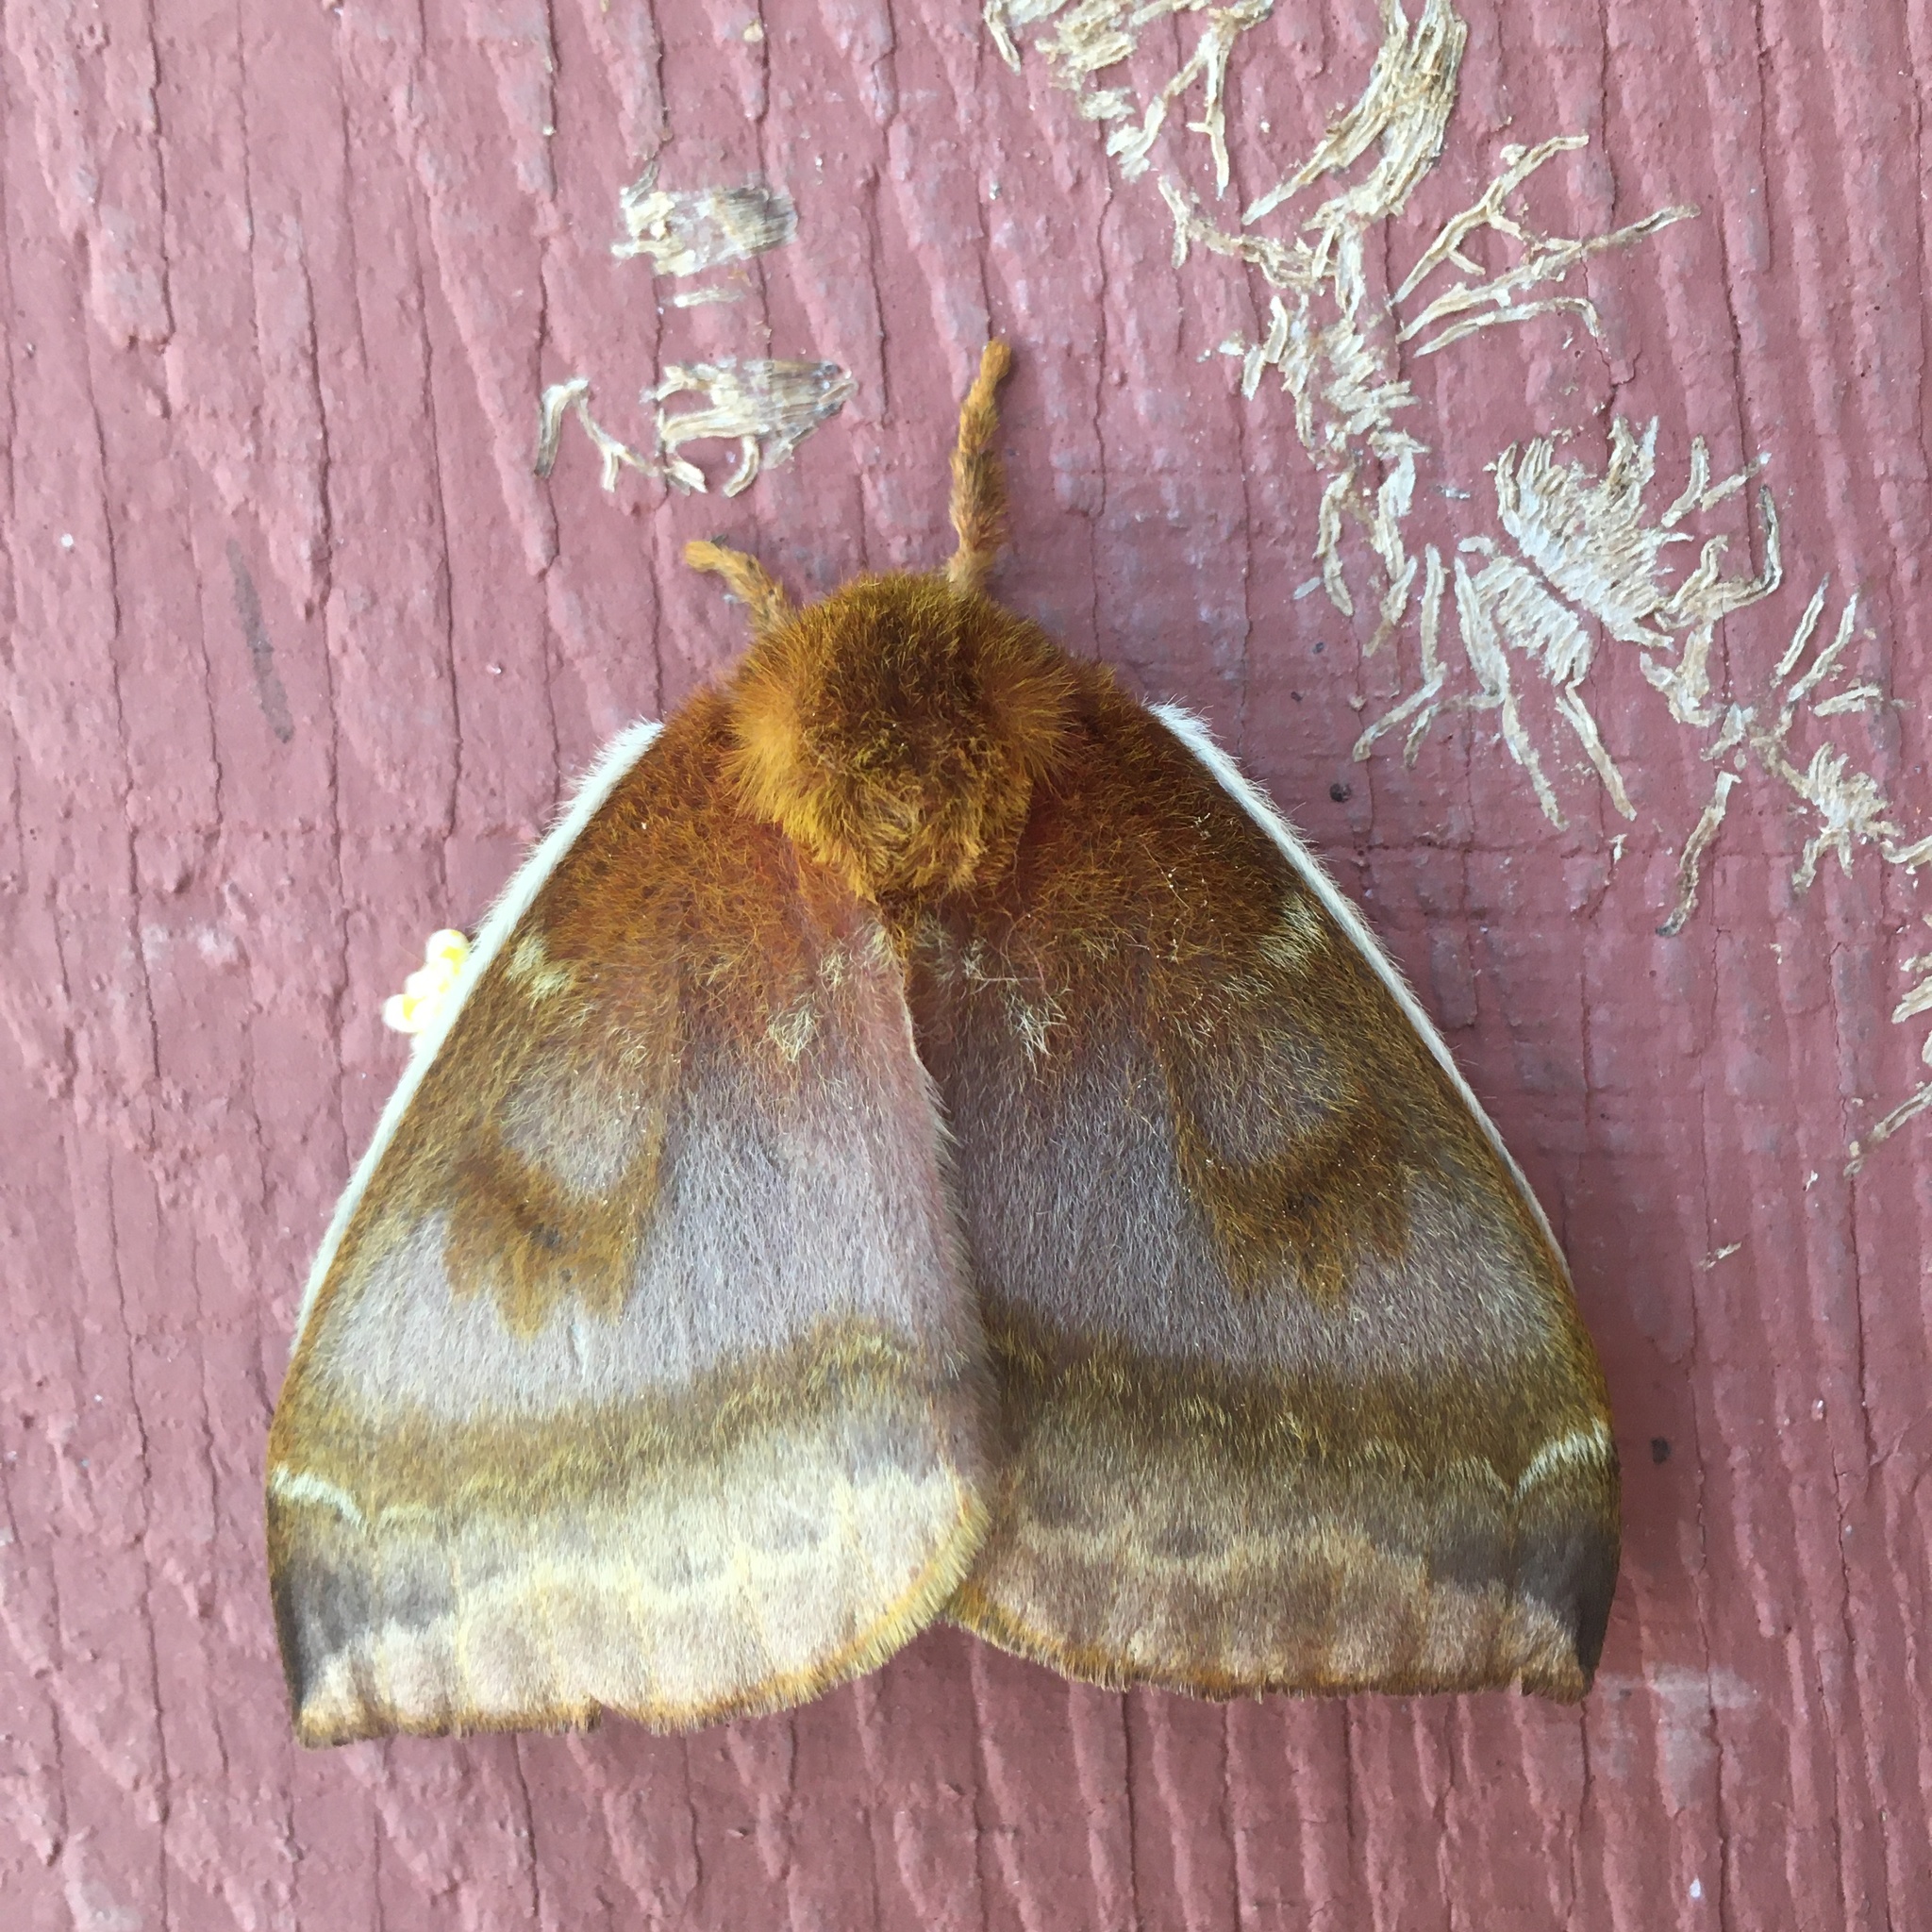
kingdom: Animalia
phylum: Arthropoda
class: Insecta
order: Lepidoptera
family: Saturniidae
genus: Automeris
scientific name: Automeris io
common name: Io moth
